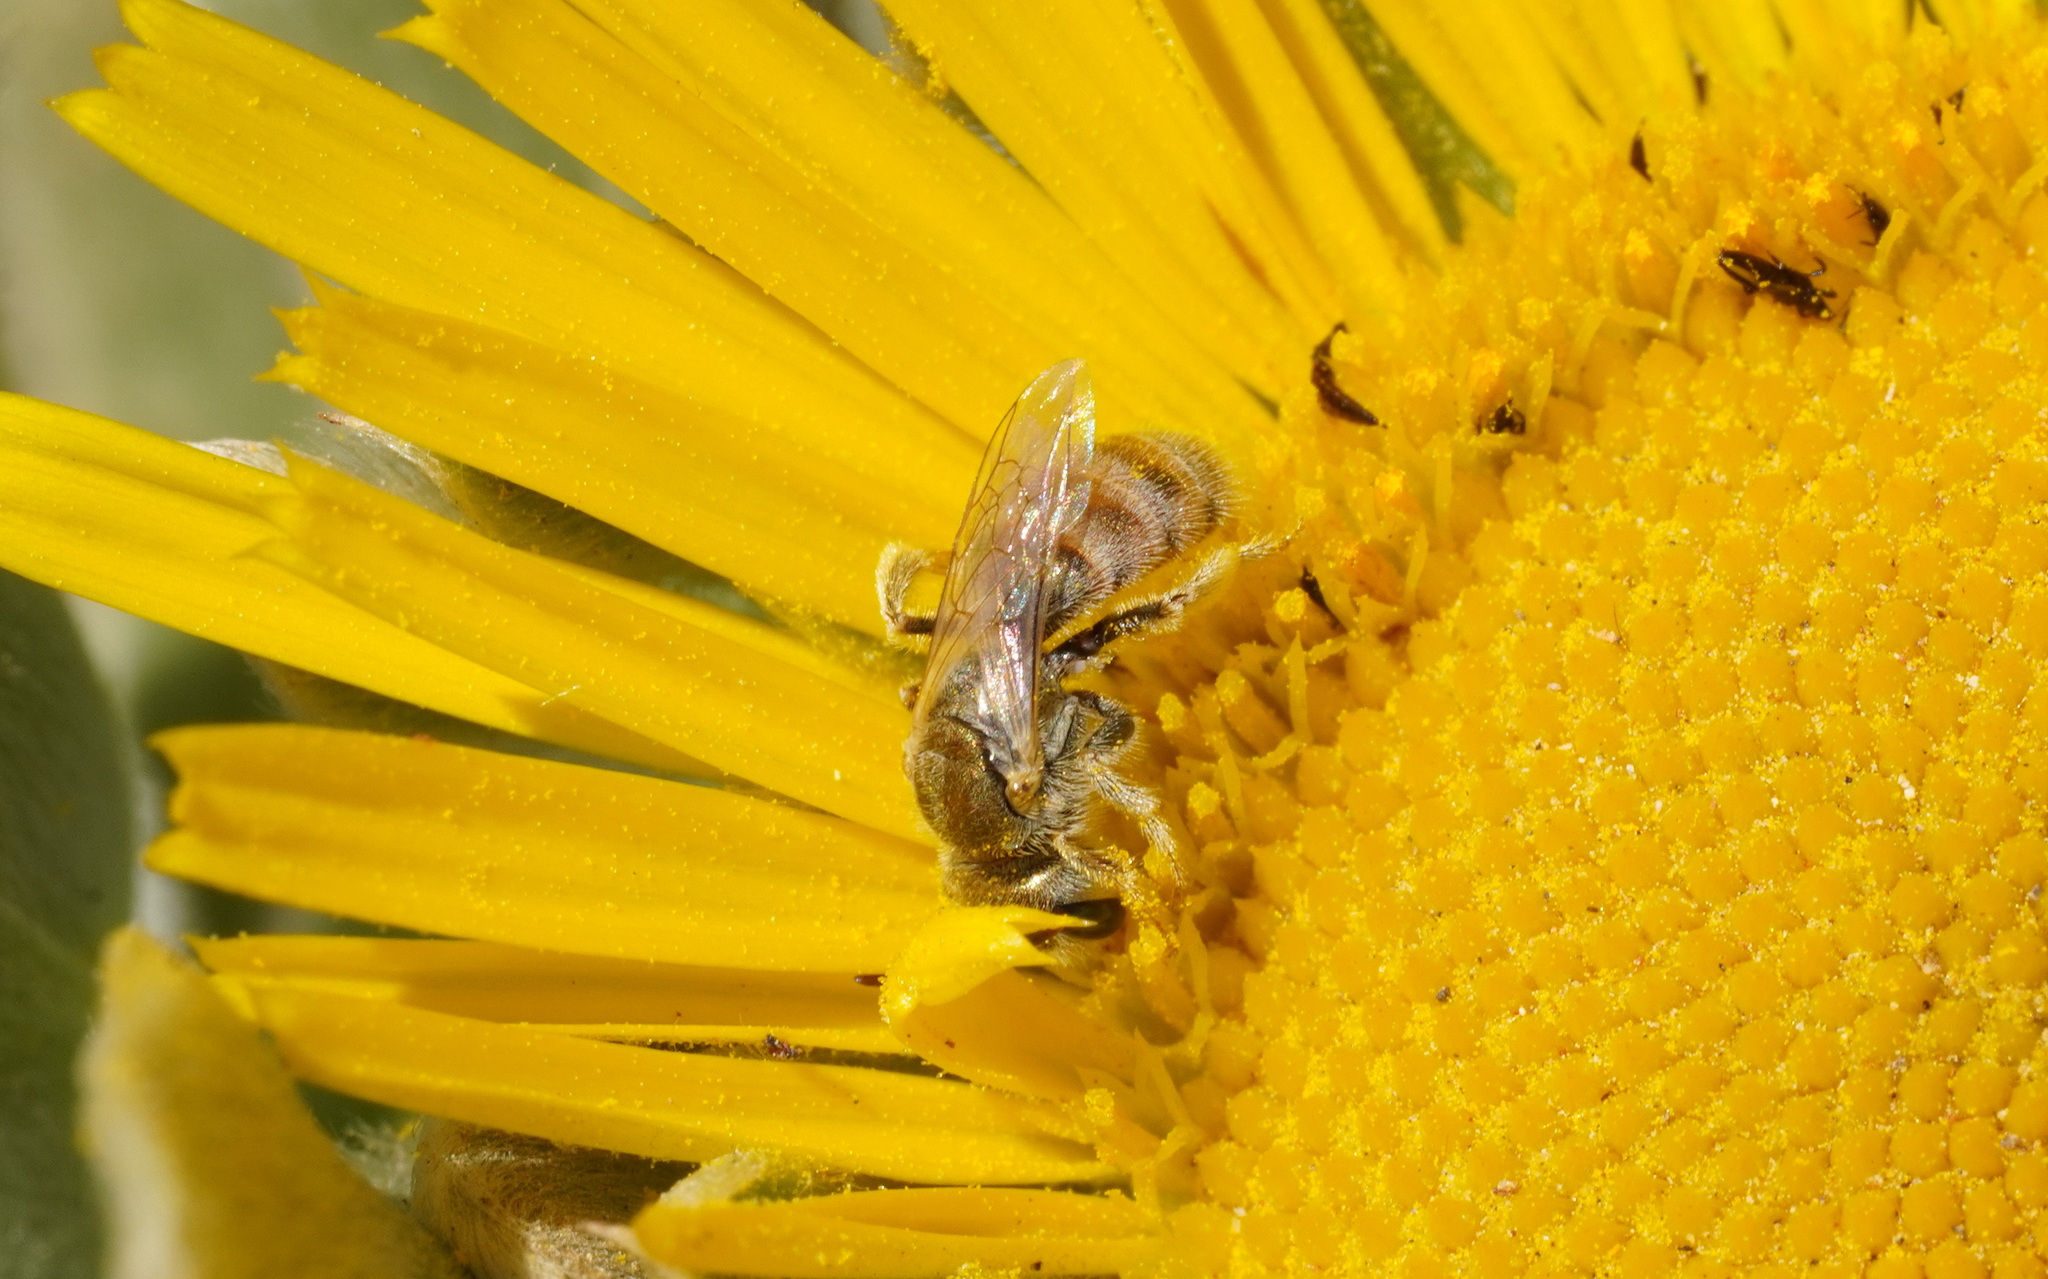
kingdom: Animalia
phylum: Arthropoda
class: Insecta
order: Hymenoptera
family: Halictidae
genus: Halictus
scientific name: Halictus concinnus
